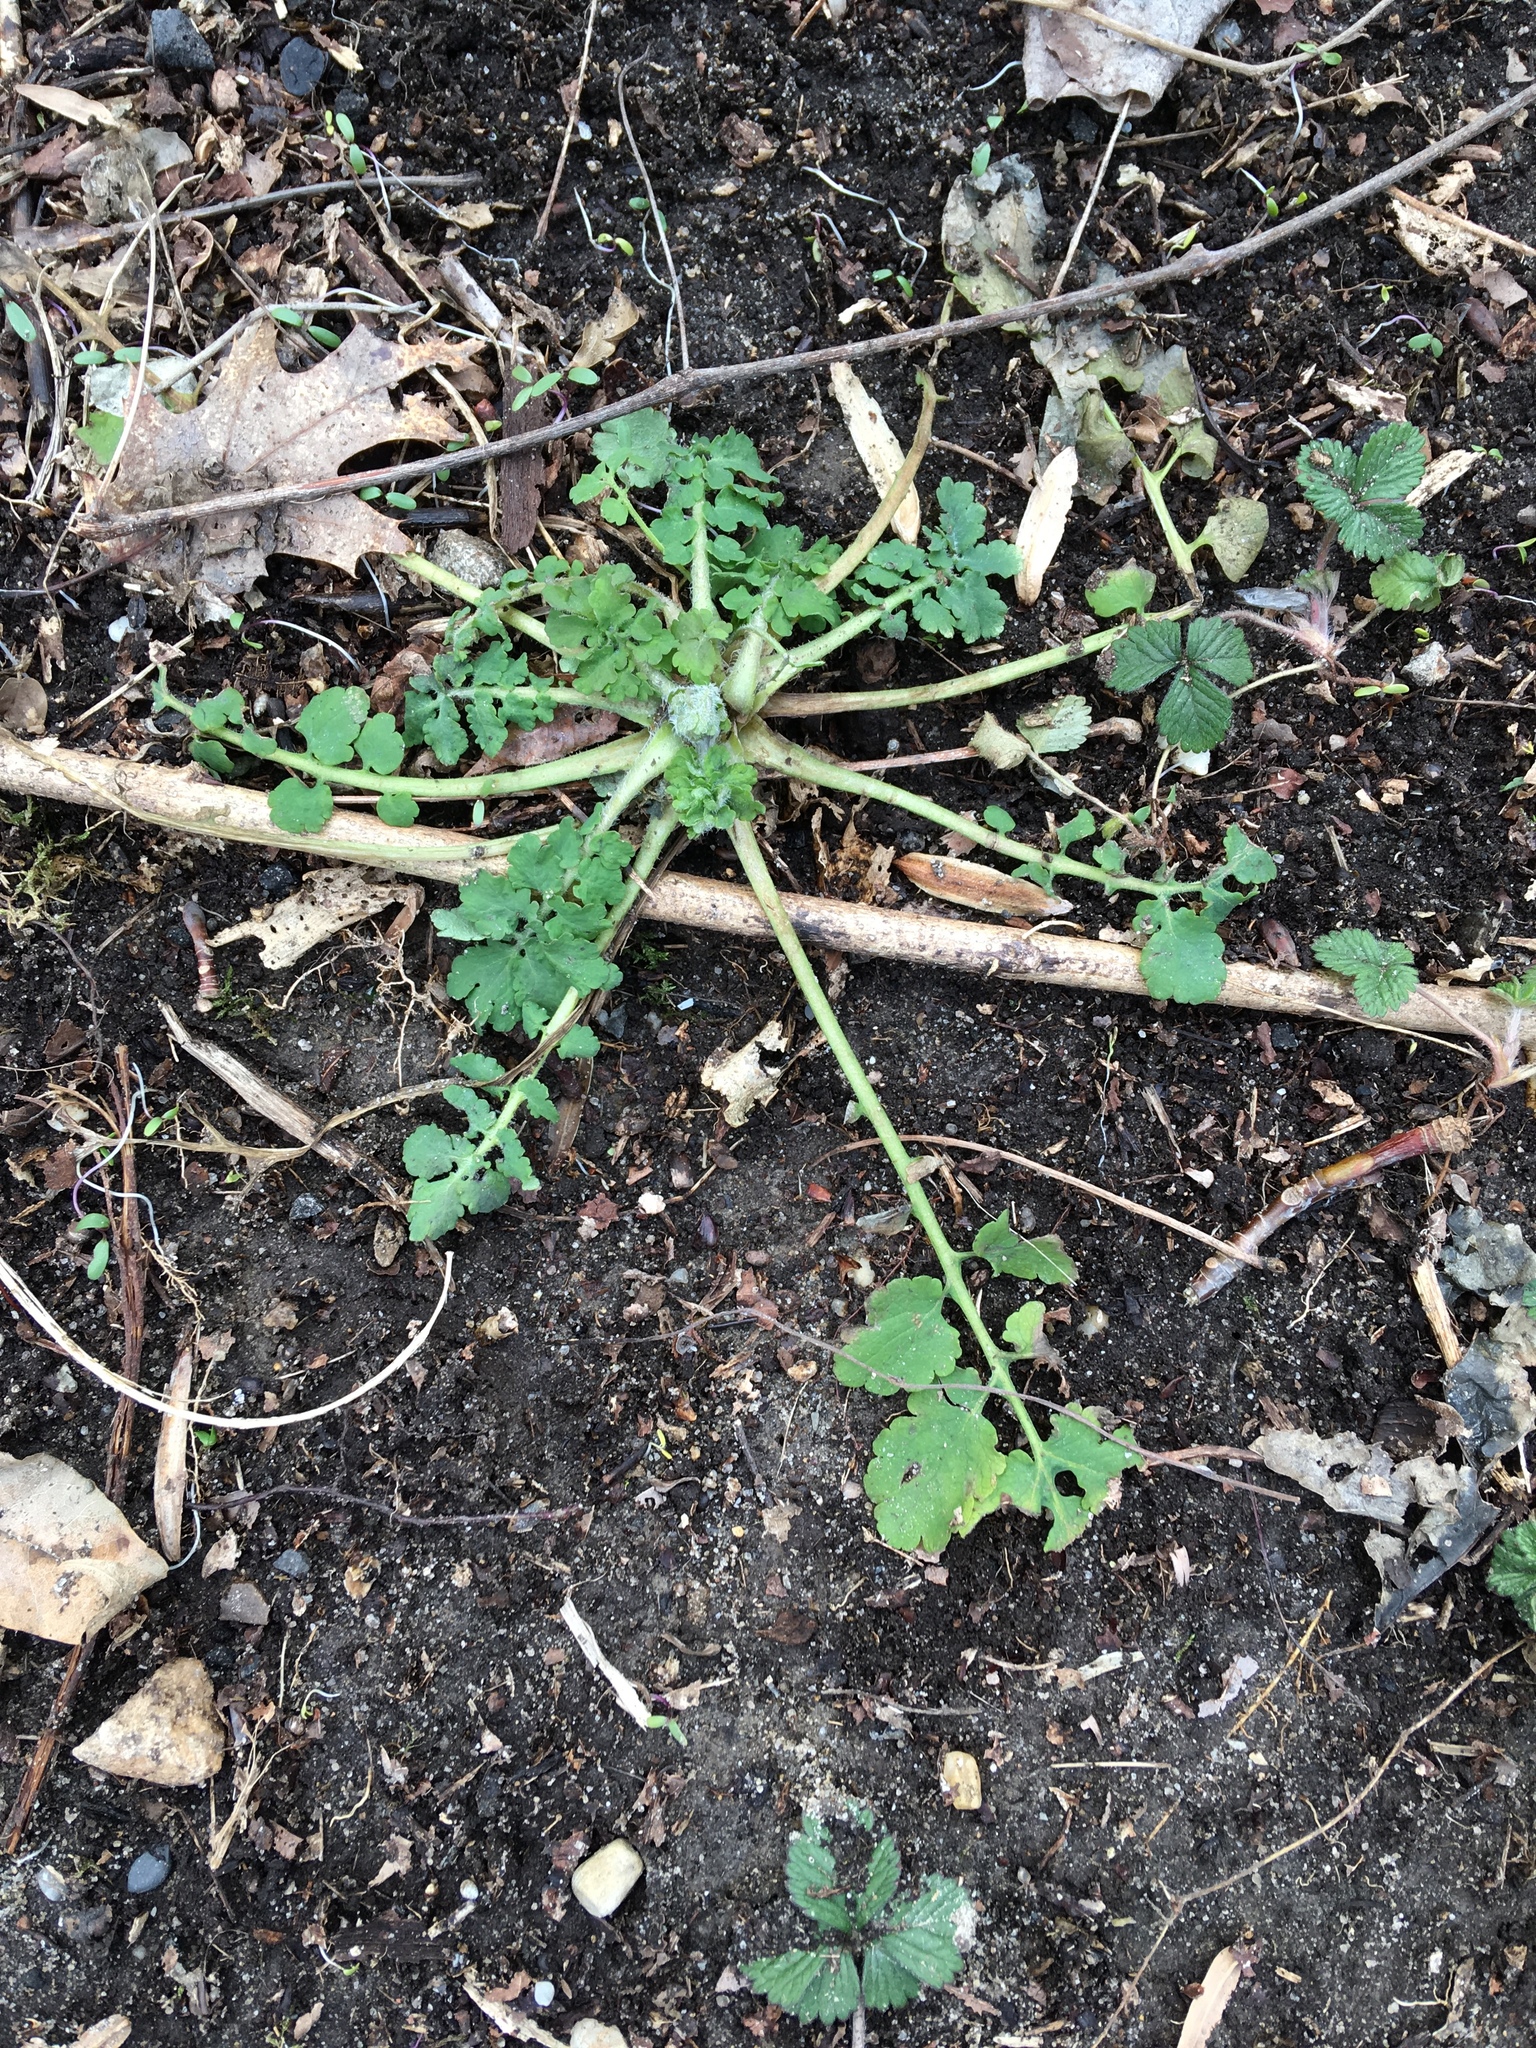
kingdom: Plantae
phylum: Tracheophyta
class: Magnoliopsida
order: Ranunculales
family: Papaveraceae
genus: Chelidonium
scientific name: Chelidonium majus
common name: Greater celandine
